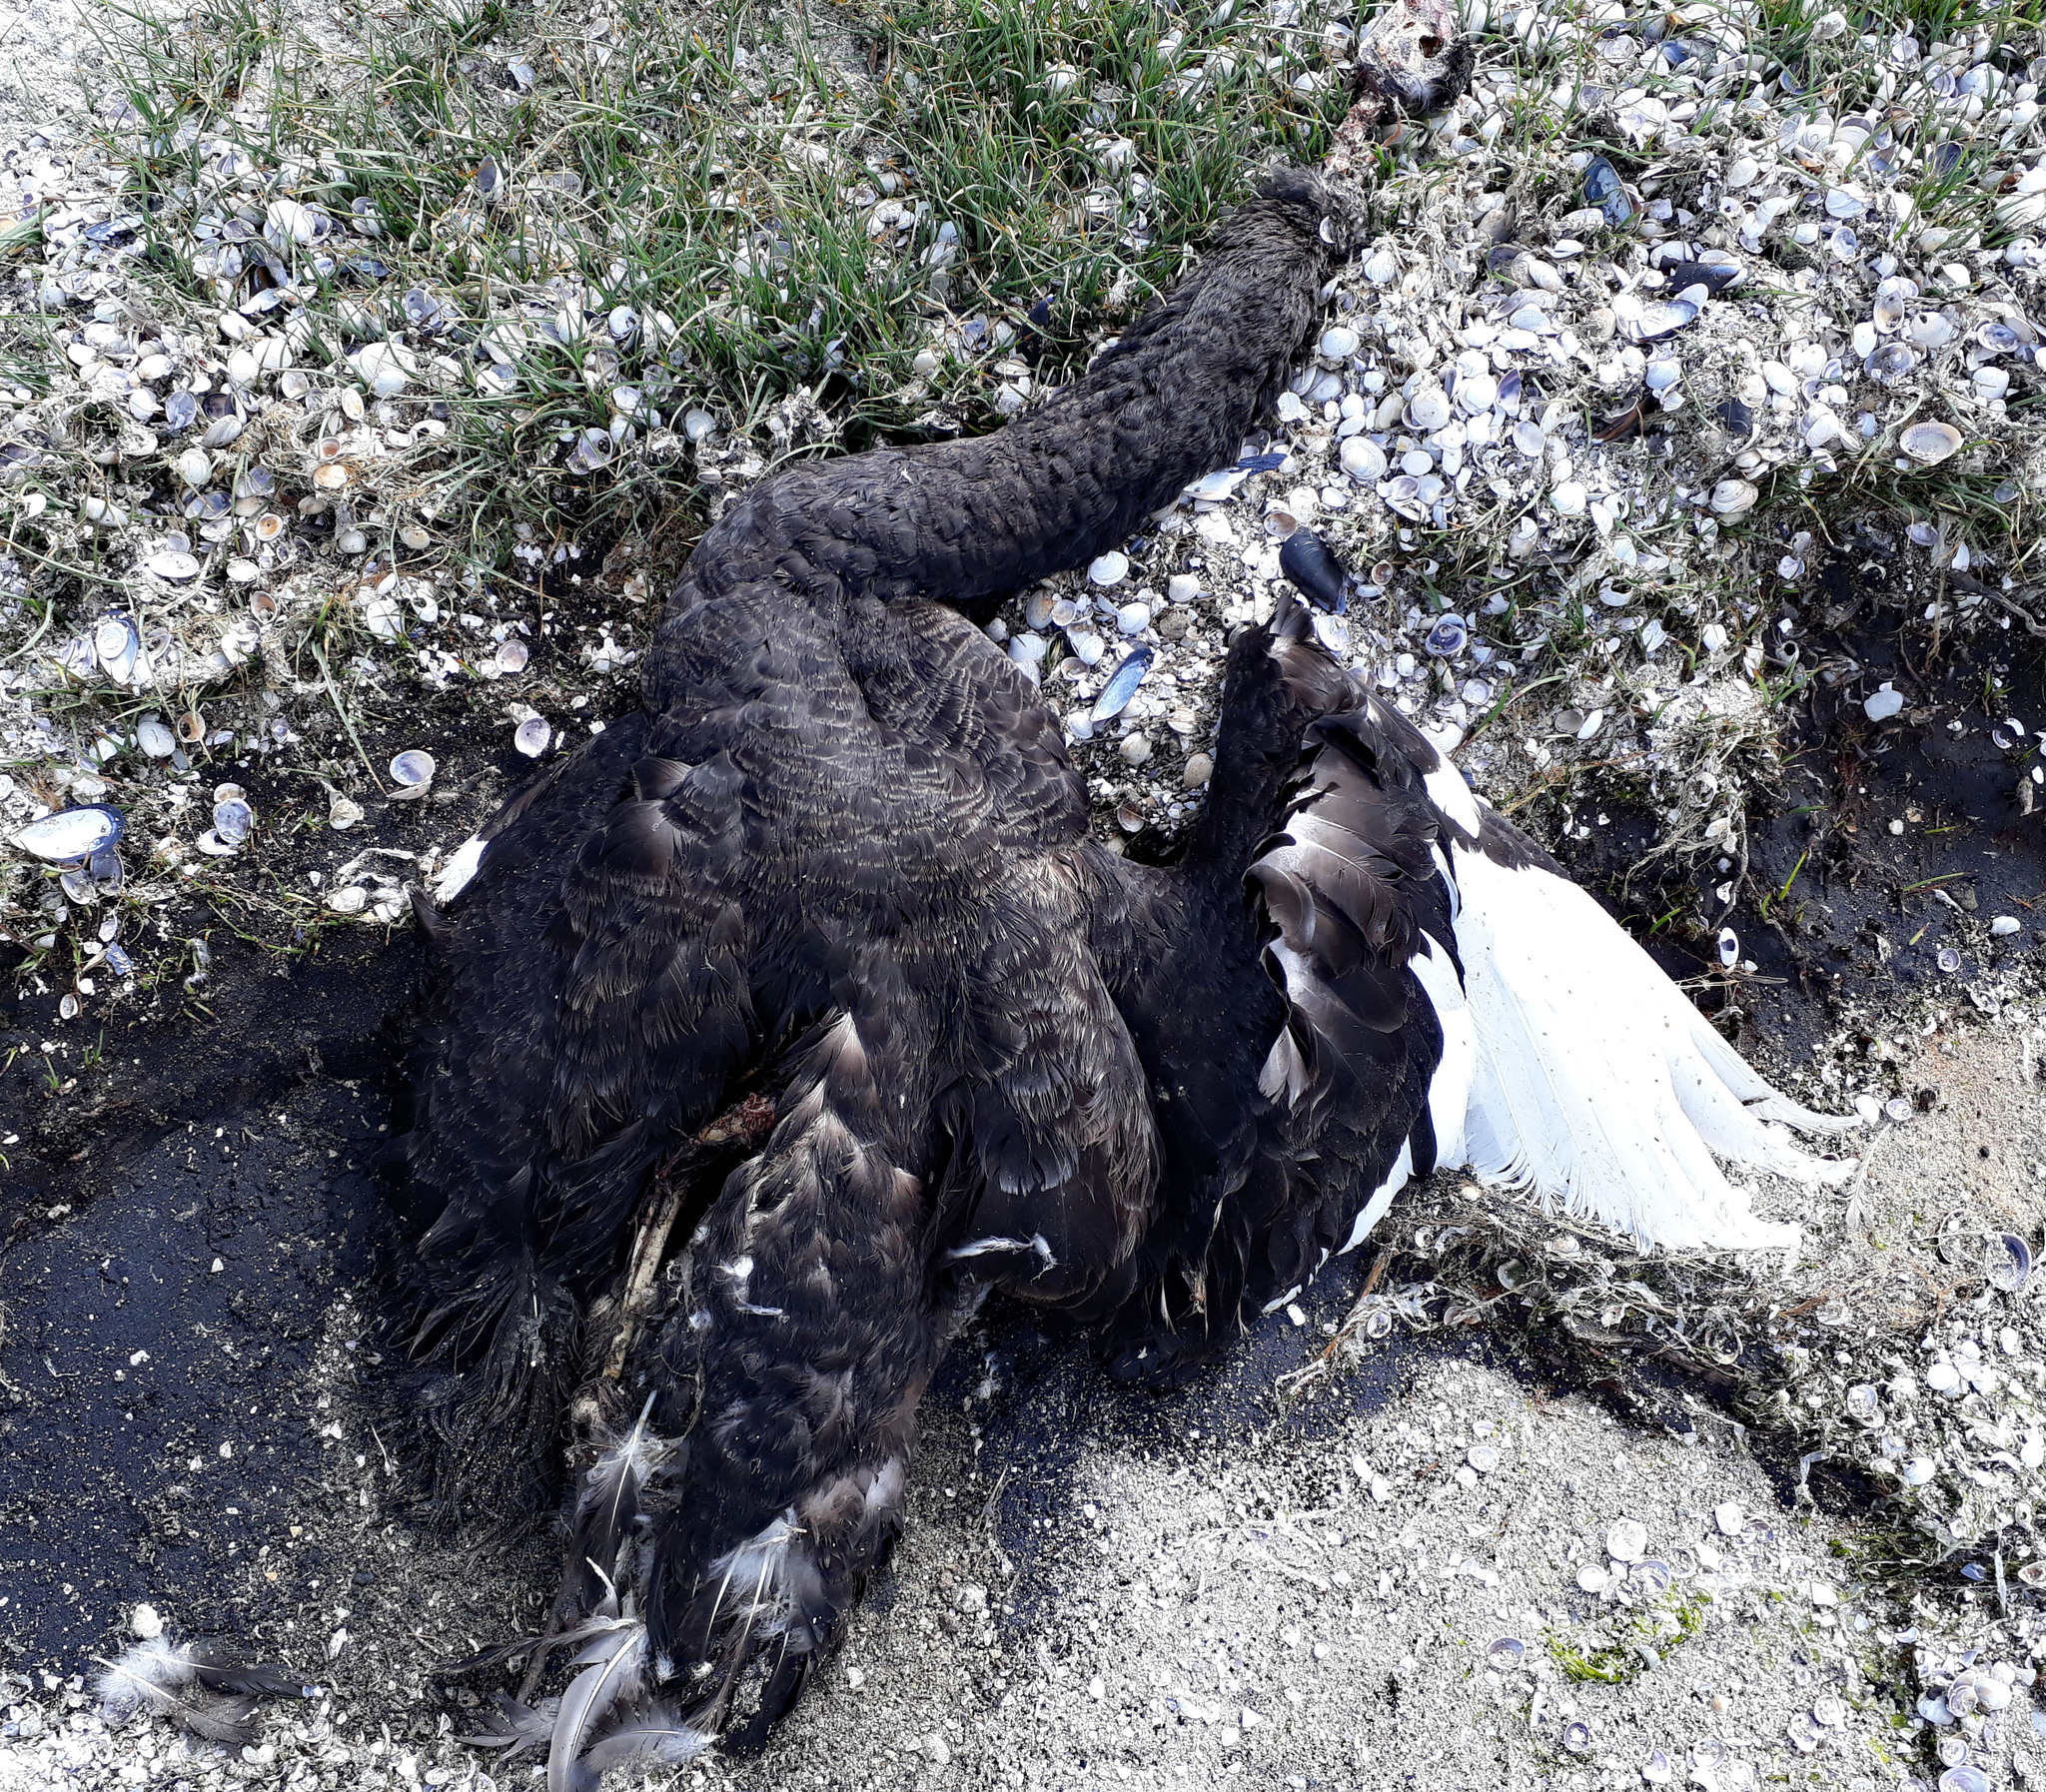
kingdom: Animalia
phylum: Chordata
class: Aves
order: Anseriformes
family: Anatidae
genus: Cygnus
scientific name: Cygnus atratus
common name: Black swan
